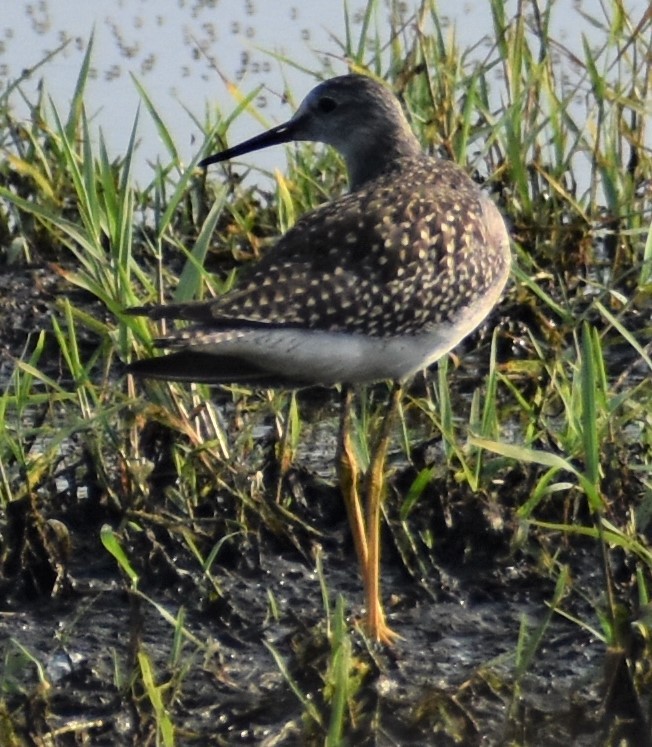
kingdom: Animalia
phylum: Chordata
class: Aves
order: Charadriiformes
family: Scolopacidae
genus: Tringa
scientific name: Tringa flavipes
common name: Lesser yellowlegs
